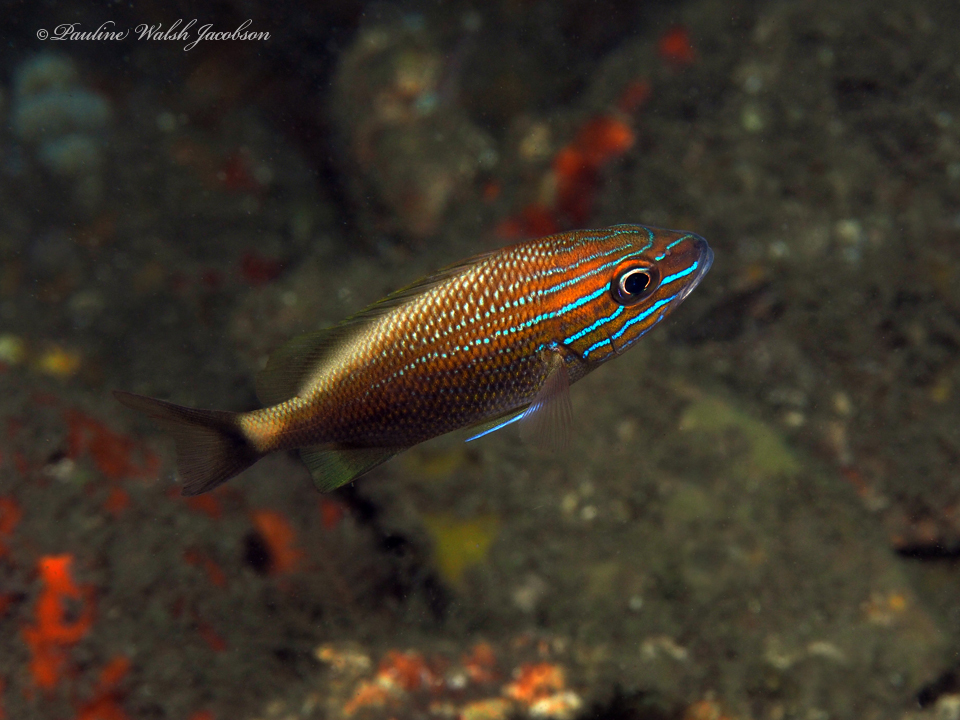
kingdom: Animalia
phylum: Chordata
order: Perciformes
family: Haemulidae
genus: Haemulon
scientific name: Haemulon plumierii
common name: White grunt
